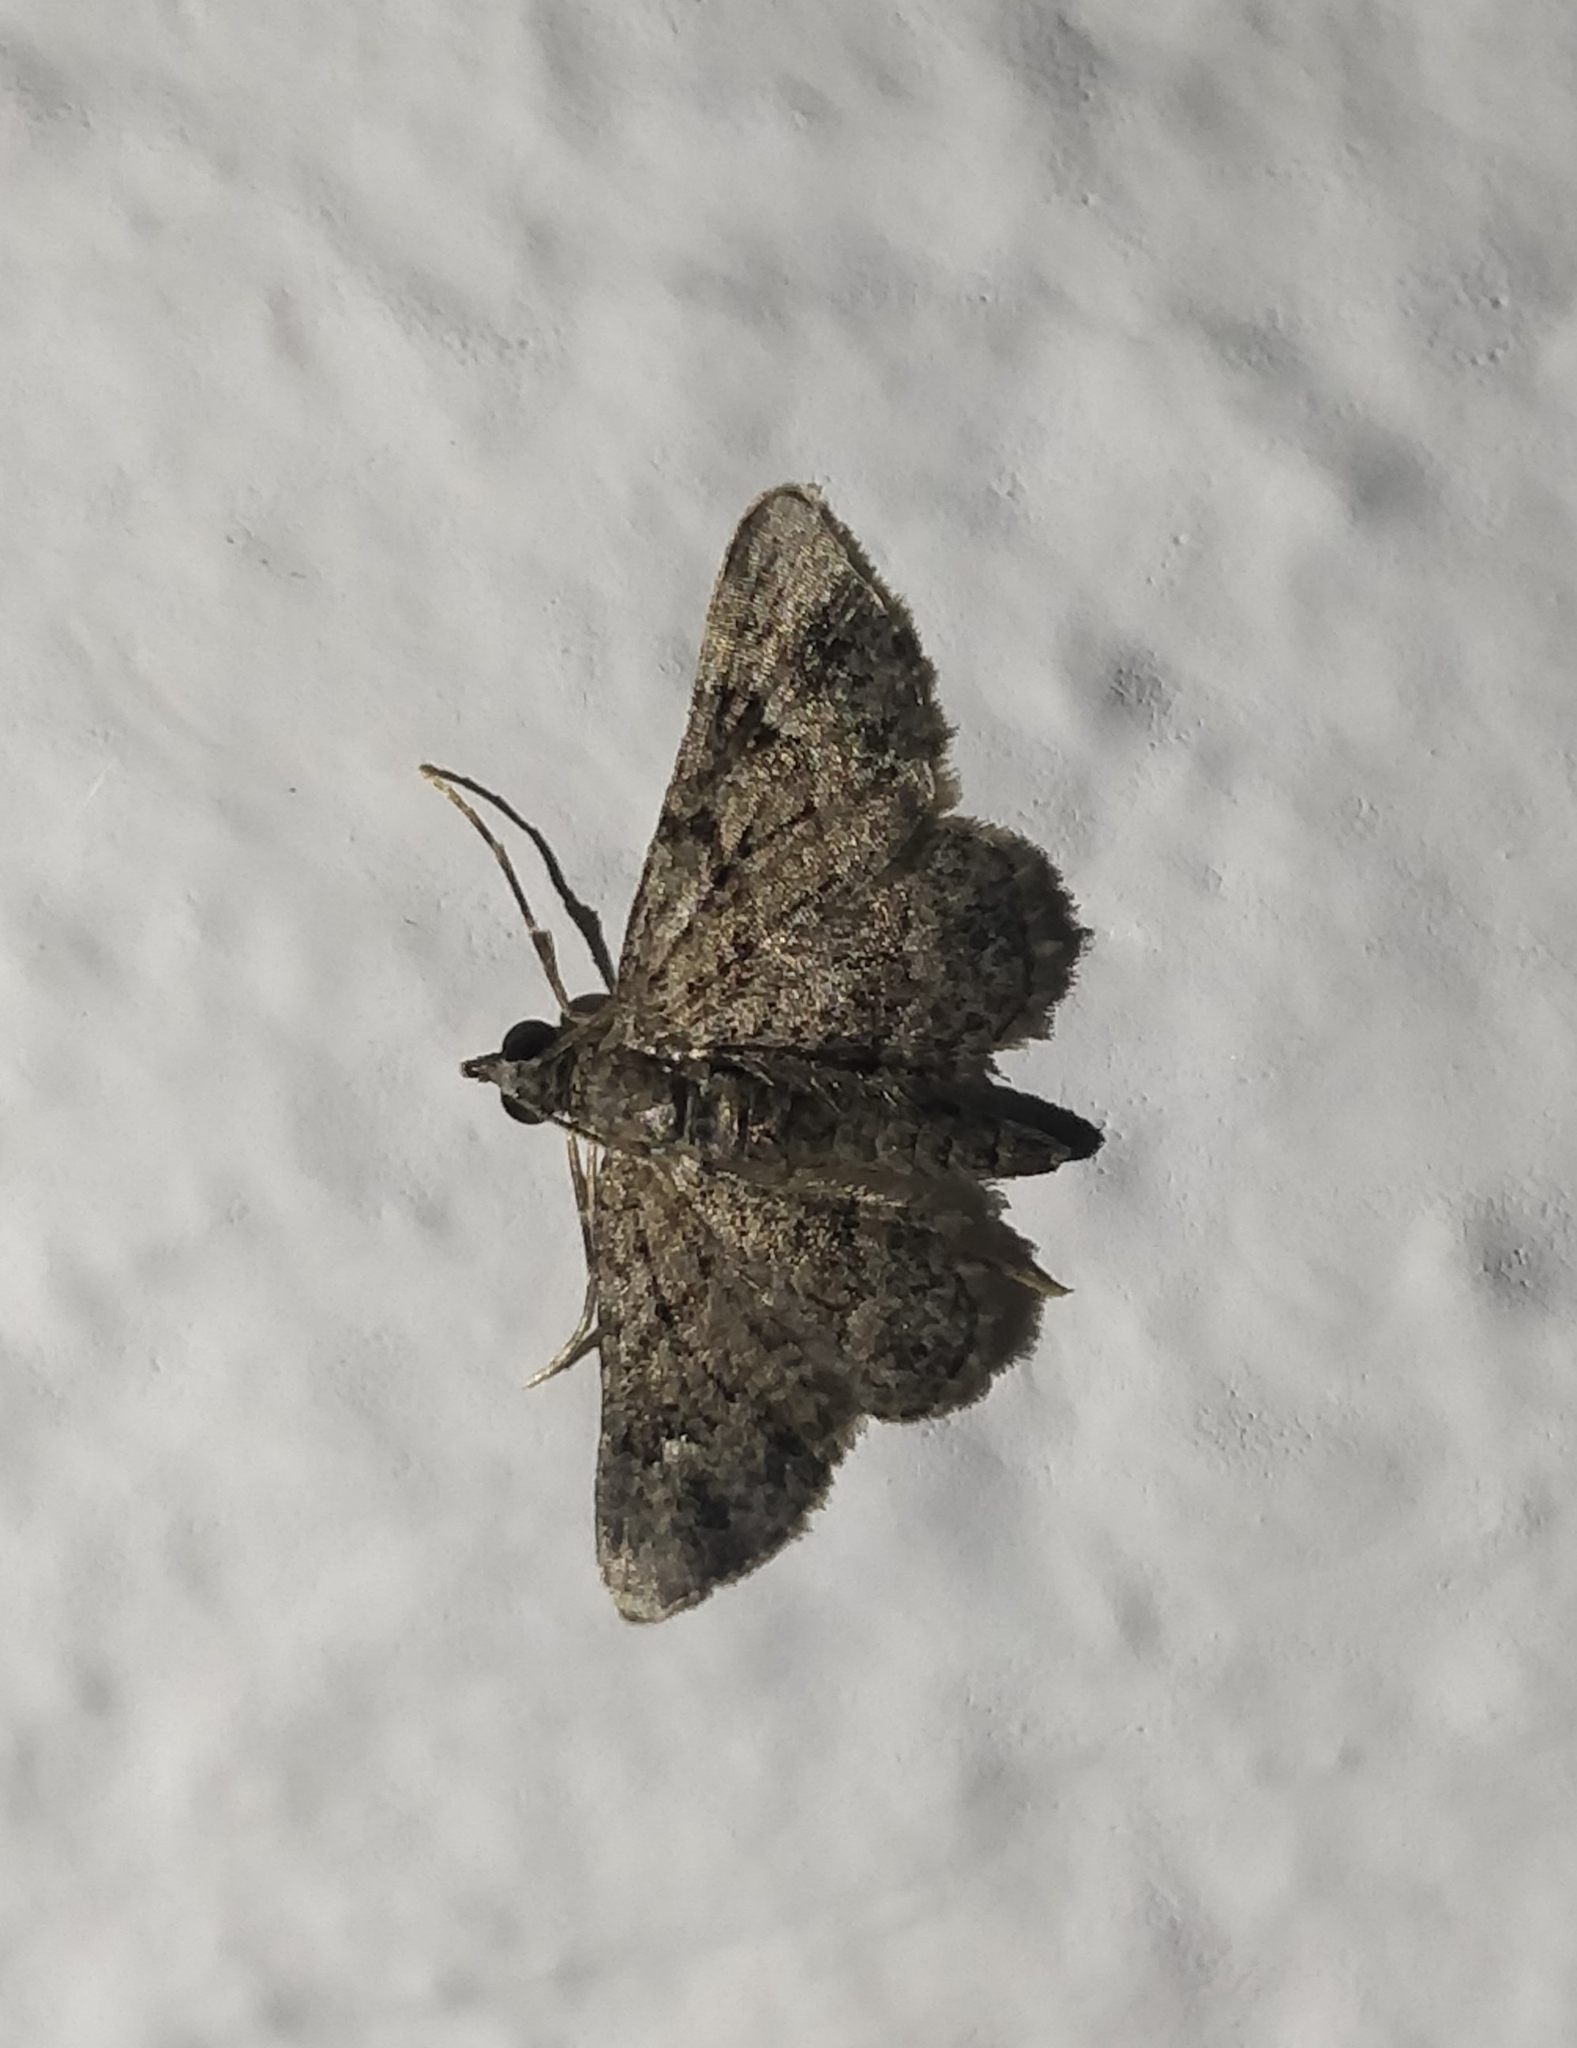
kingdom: Animalia
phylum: Arthropoda
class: Insecta
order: Lepidoptera
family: Geometridae
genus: Gymnoscelis
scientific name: Gymnoscelis rufifasciata
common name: Double-striped pug
